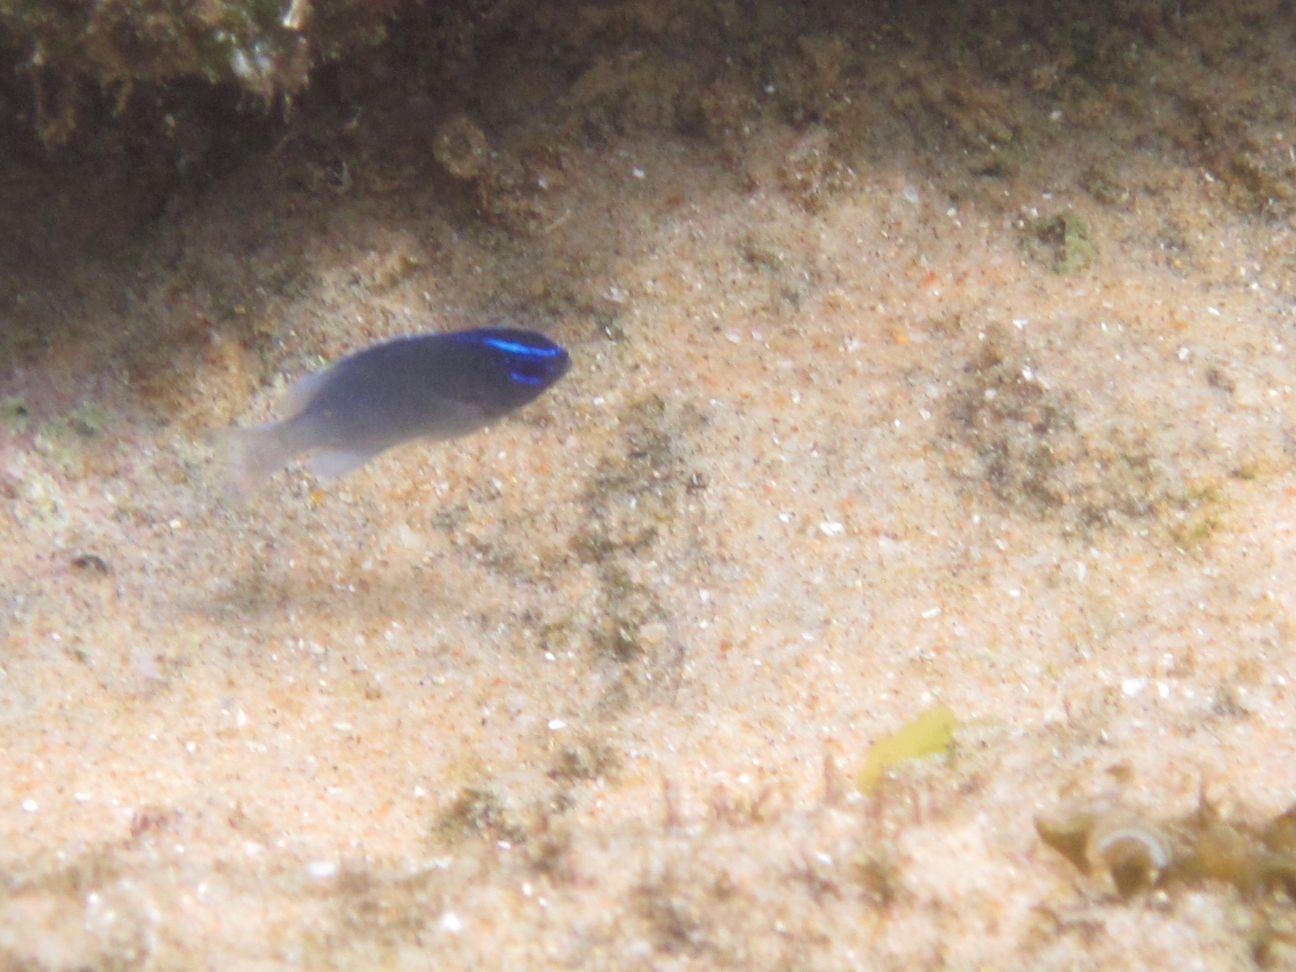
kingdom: Animalia
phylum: Chordata
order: Perciformes
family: Pomacentridae
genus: Chrysiptera
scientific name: Chrysiptera glauca
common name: Grey demoiselle
